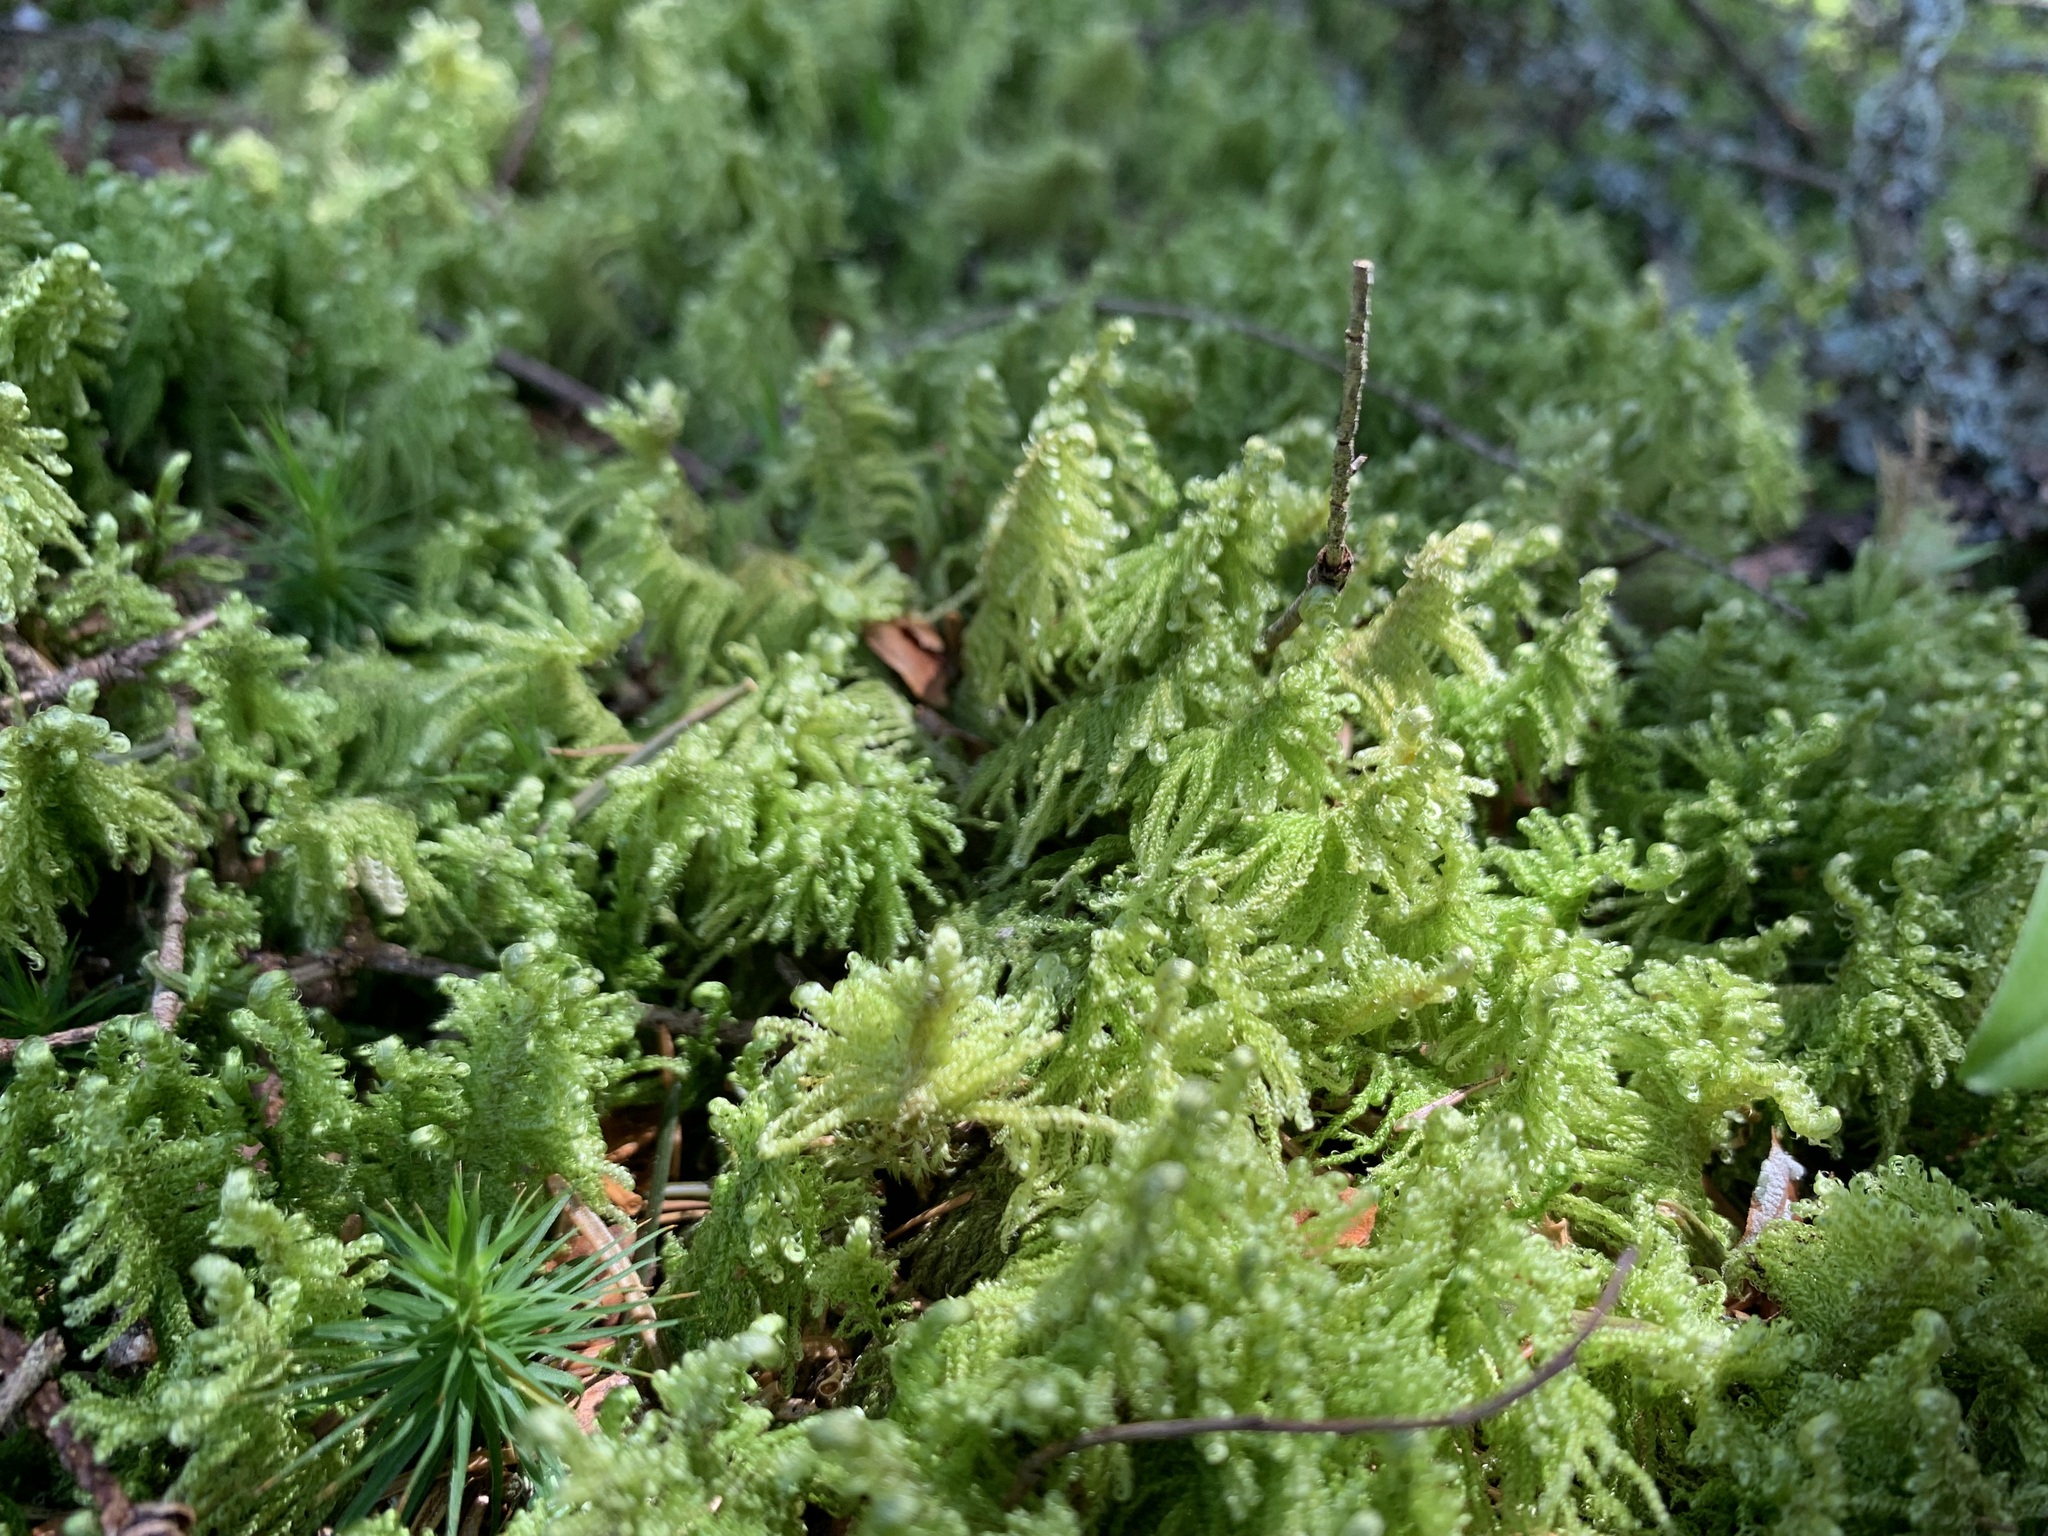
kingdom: Plantae
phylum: Bryophyta
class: Bryopsida
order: Hypnales
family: Pylaisiaceae
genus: Ptilium
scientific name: Ptilium crista-castrensis
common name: Knight's plume moss
